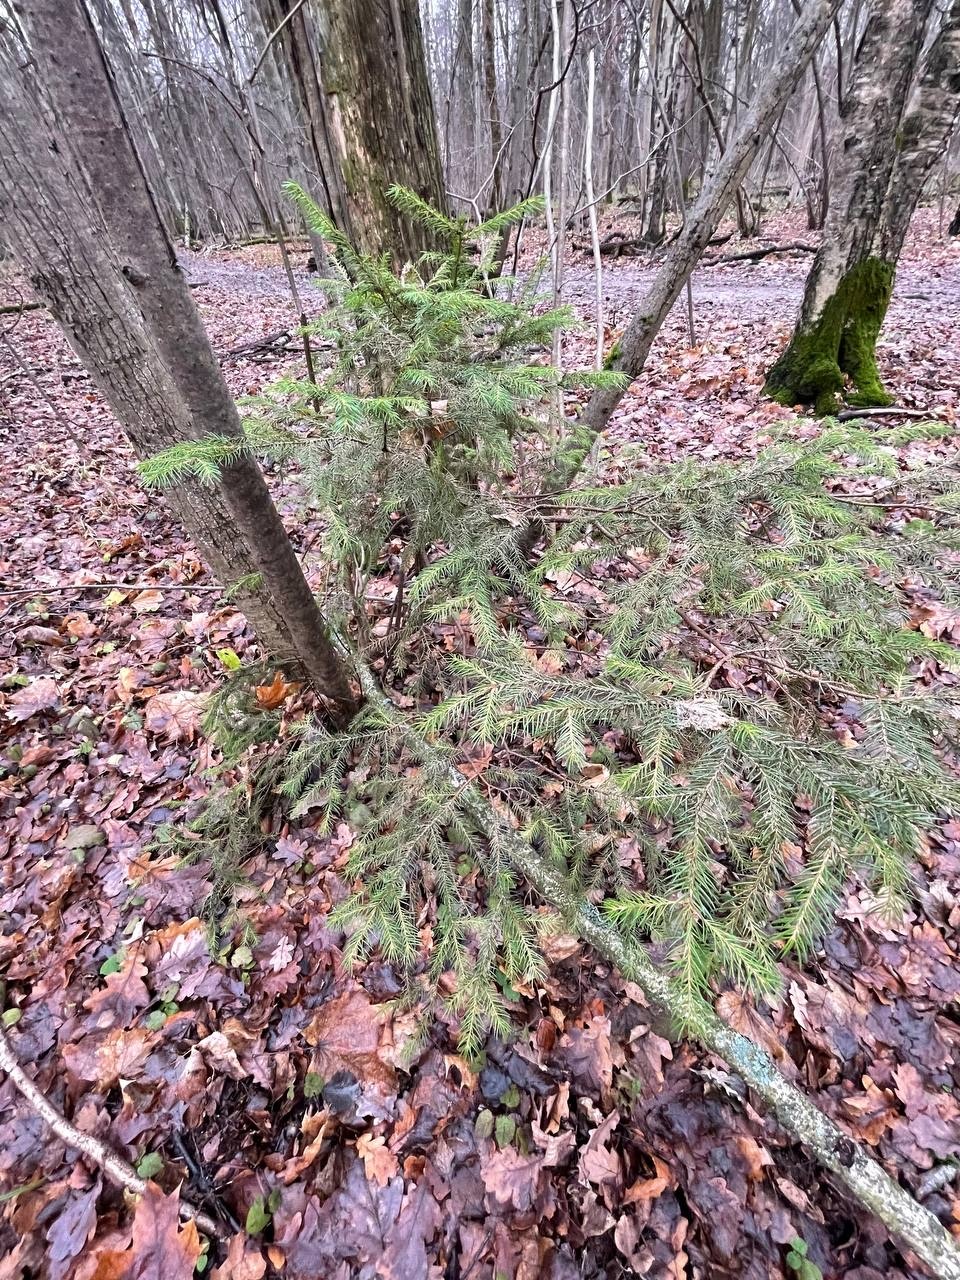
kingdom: Plantae
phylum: Tracheophyta
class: Pinopsida
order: Pinales
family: Pinaceae
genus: Picea
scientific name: Picea abies
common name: Norway spruce
